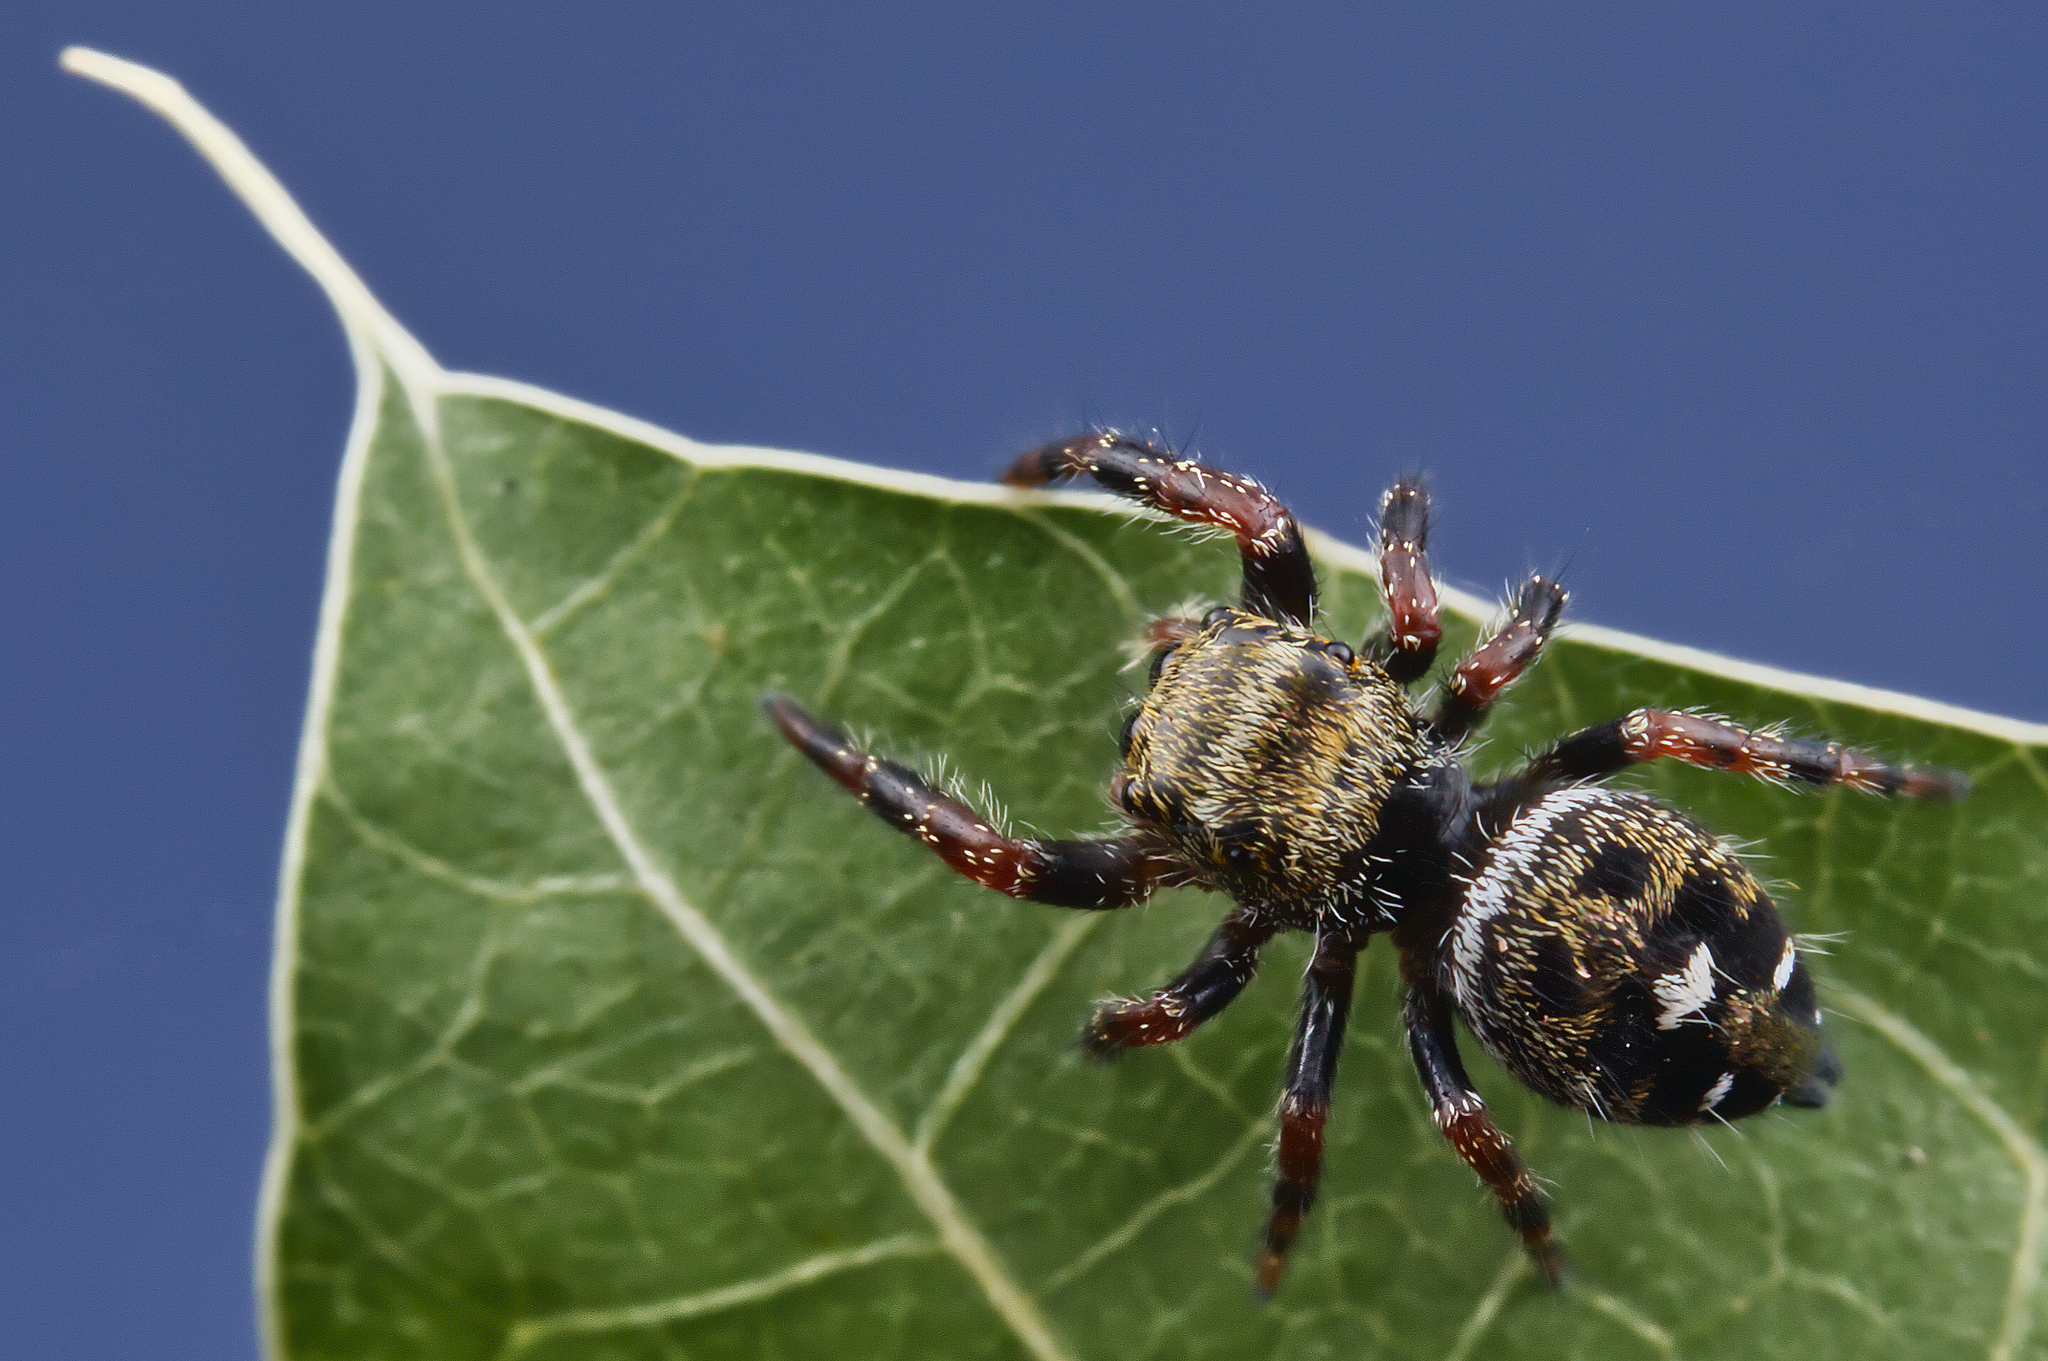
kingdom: Animalia
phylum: Arthropoda
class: Arachnida
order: Araneae
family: Salticidae
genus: Phidippus
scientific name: Phidippus audax
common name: Bold jumper
